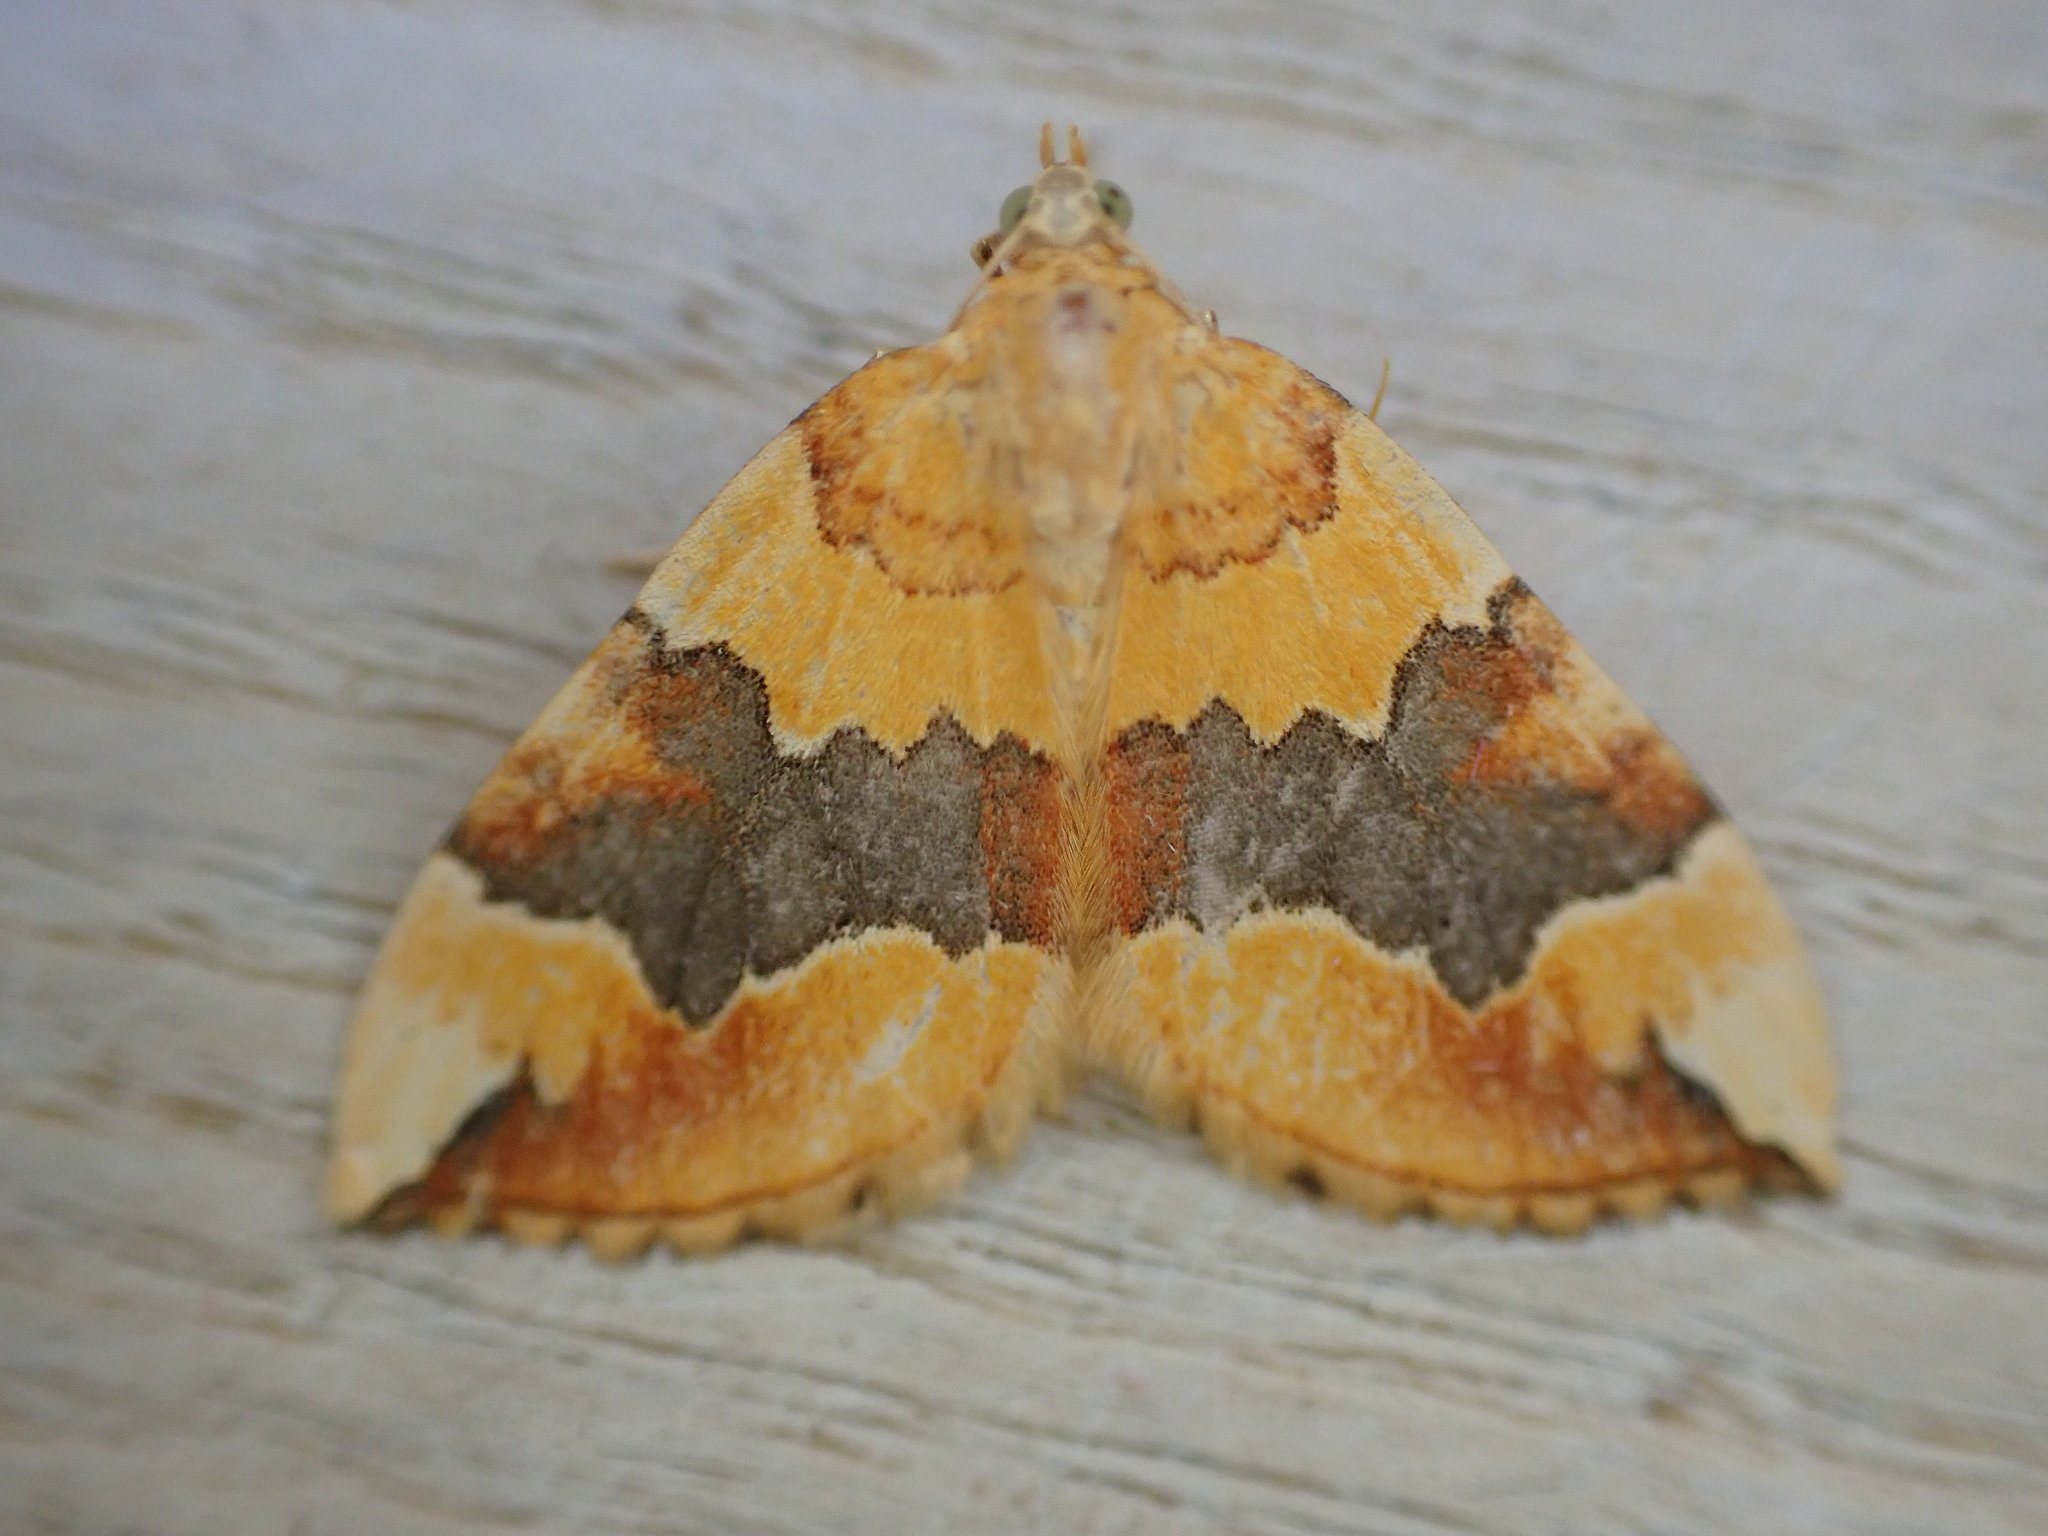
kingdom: Animalia
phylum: Arthropoda
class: Insecta
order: Lepidoptera
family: Geometridae
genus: Cidaria
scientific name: Cidaria fulvata
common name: Barred yellow
